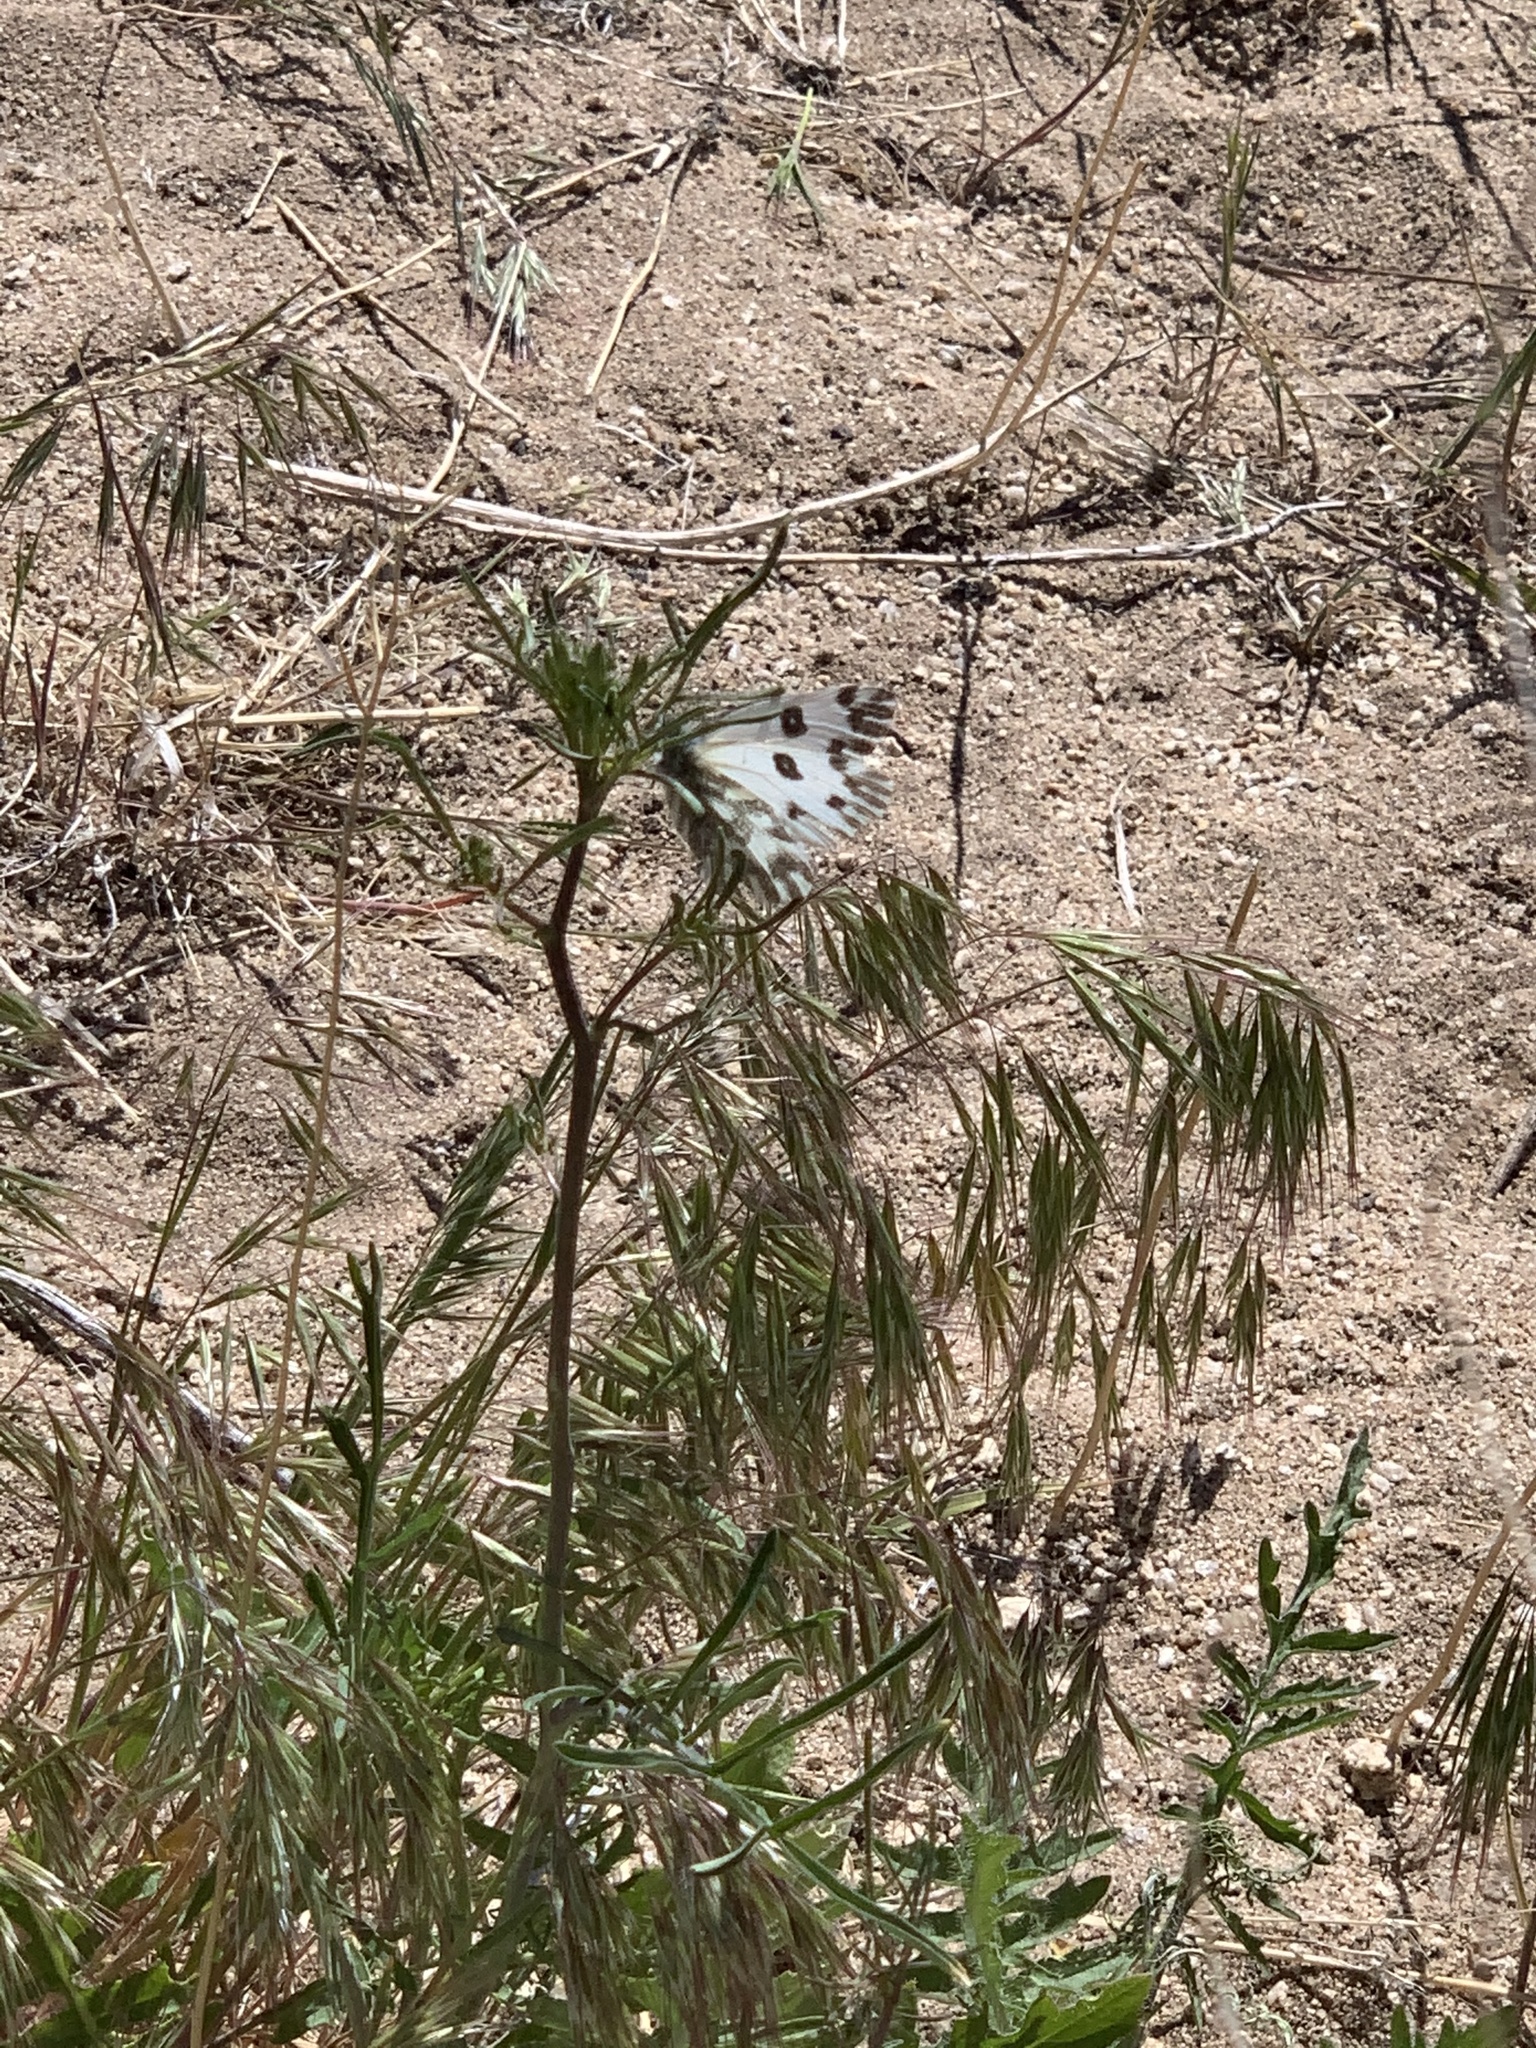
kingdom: Animalia
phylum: Arthropoda
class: Insecta
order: Lepidoptera
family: Pieridae
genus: Pontia
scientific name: Pontia beckerii
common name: Becker's white
